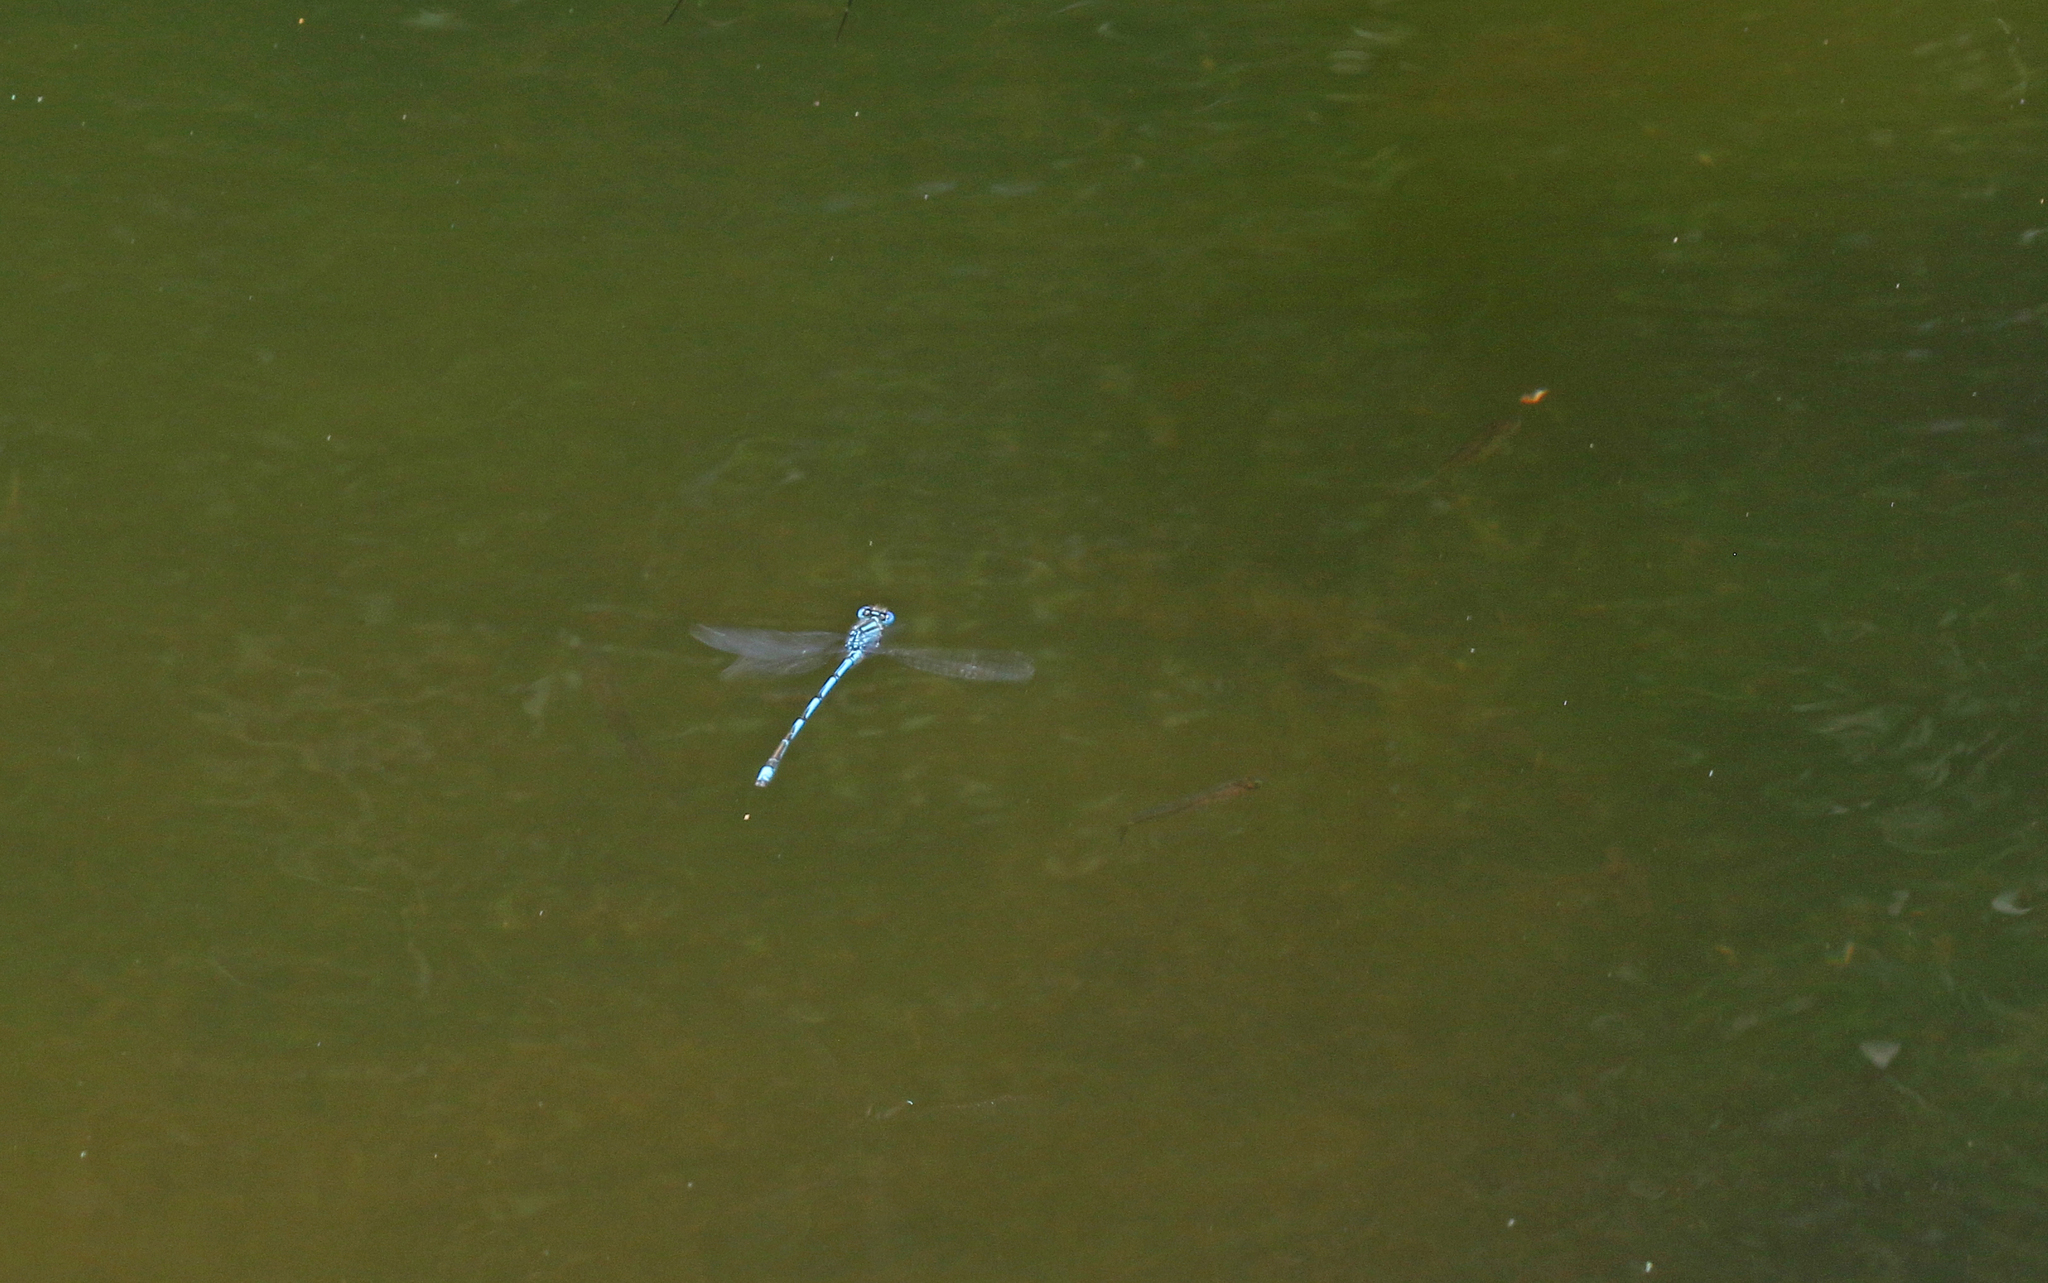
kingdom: Animalia
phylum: Arthropoda
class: Insecta
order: Odonata
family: Coenagrionidae
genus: Erythromma
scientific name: Erythromma lindenii
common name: Blue-eye
